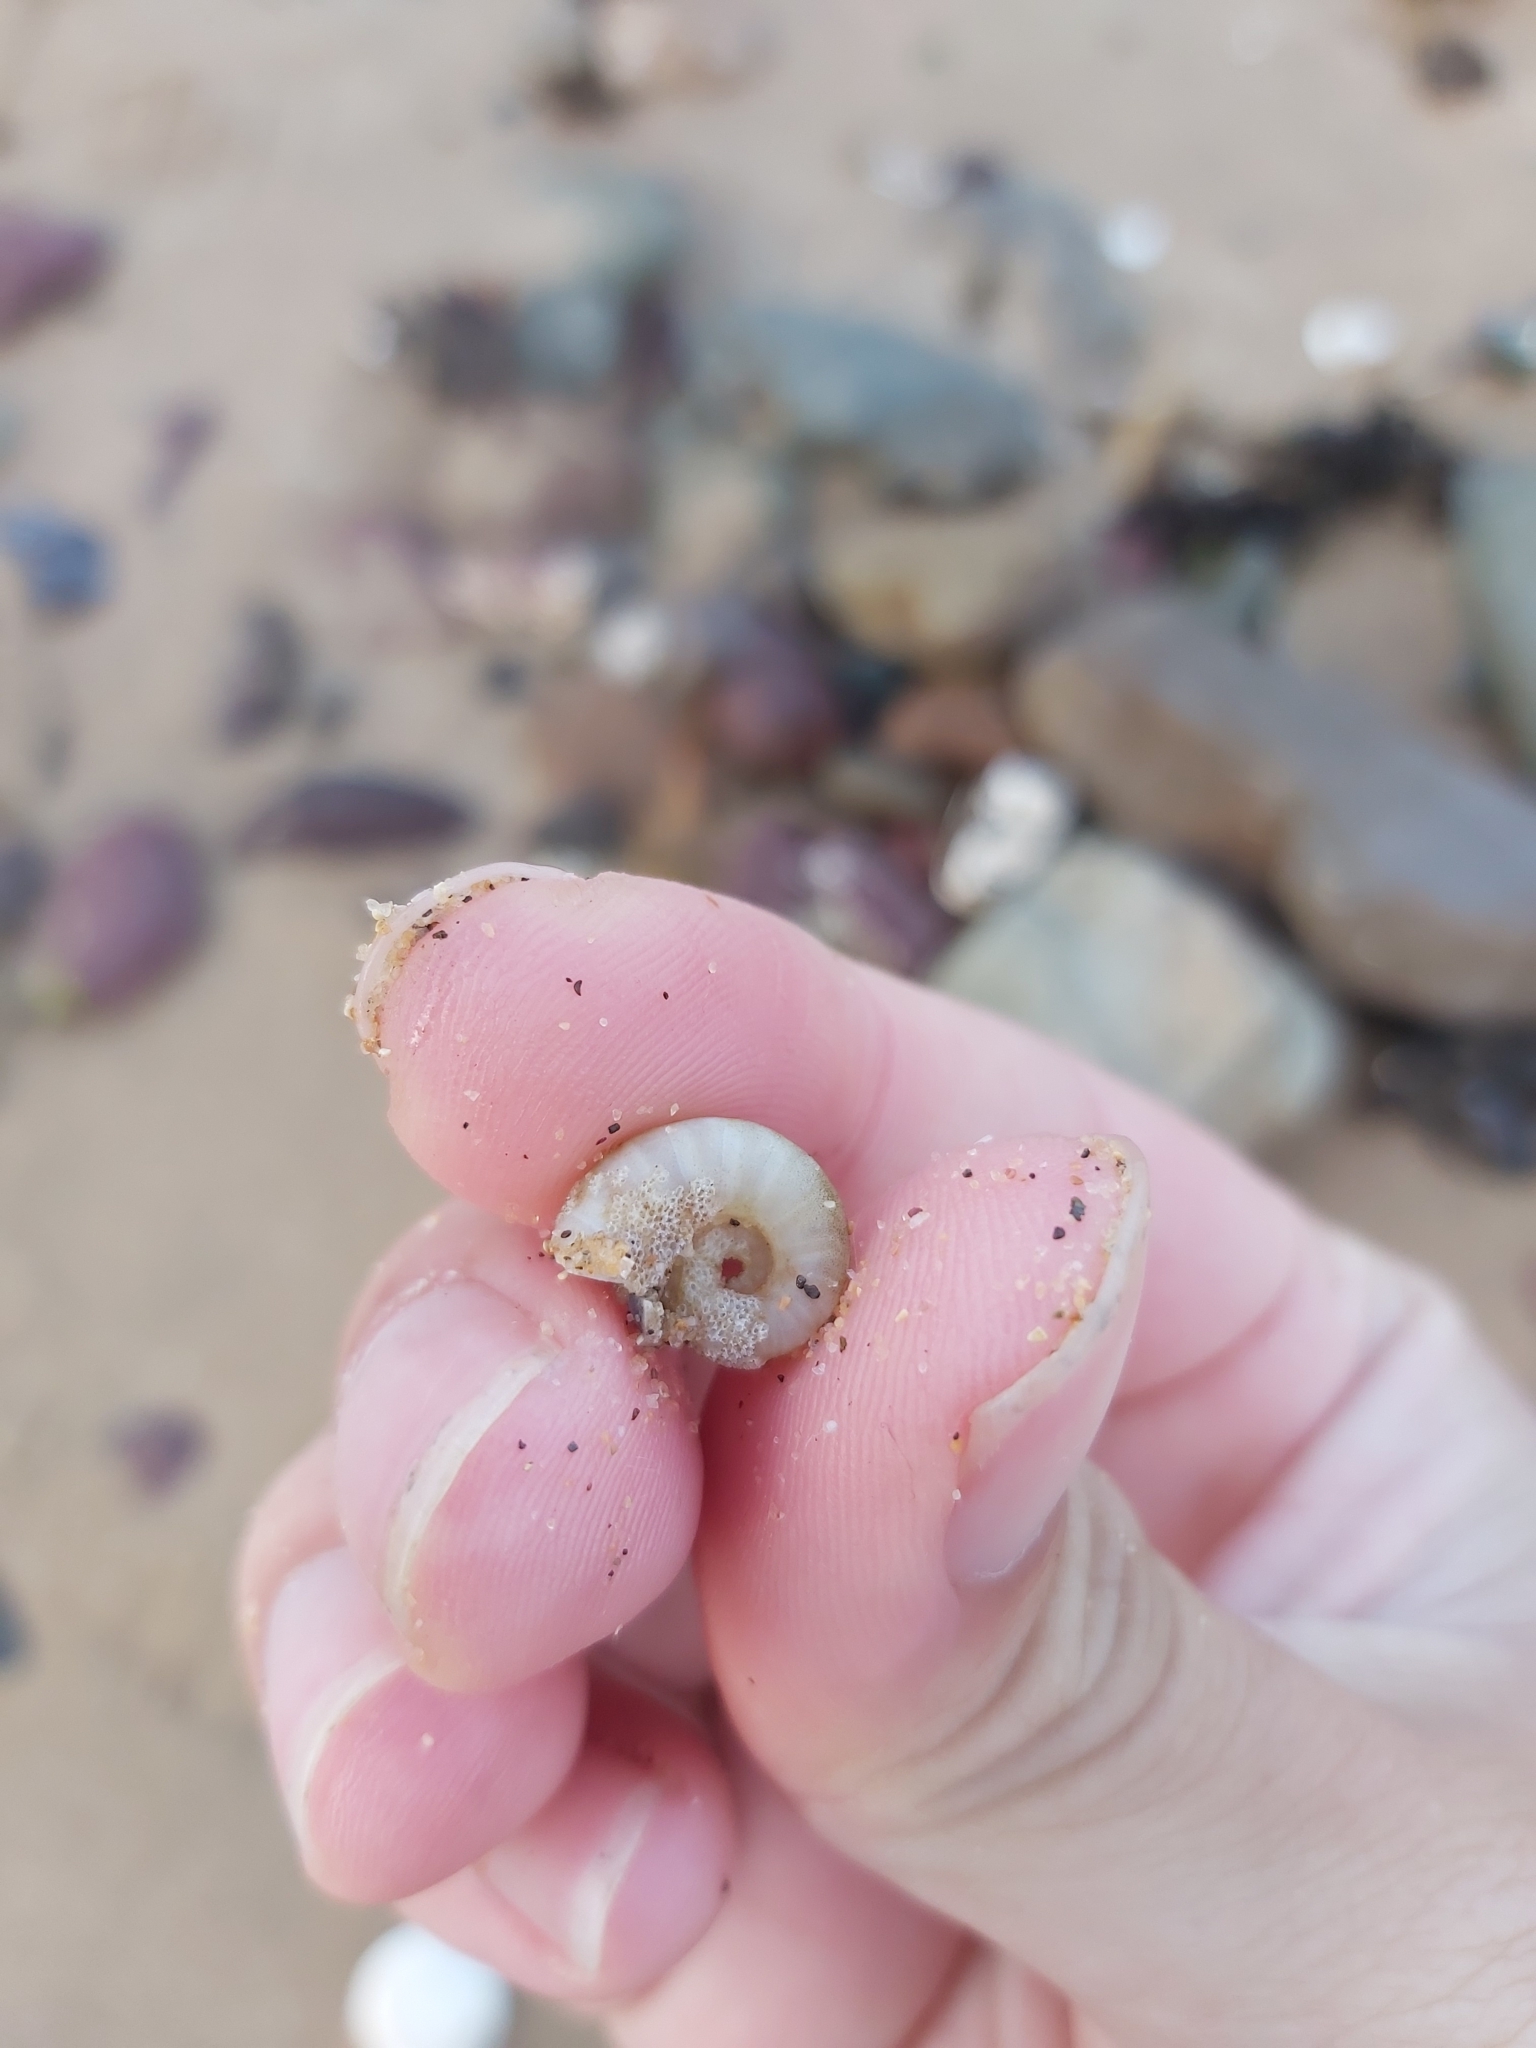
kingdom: Animalia
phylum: Mollusca
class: Cephalopoda
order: Spirulida
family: Spirulidae
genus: Spirula
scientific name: Spirula spirula
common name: Ram's horn squid
